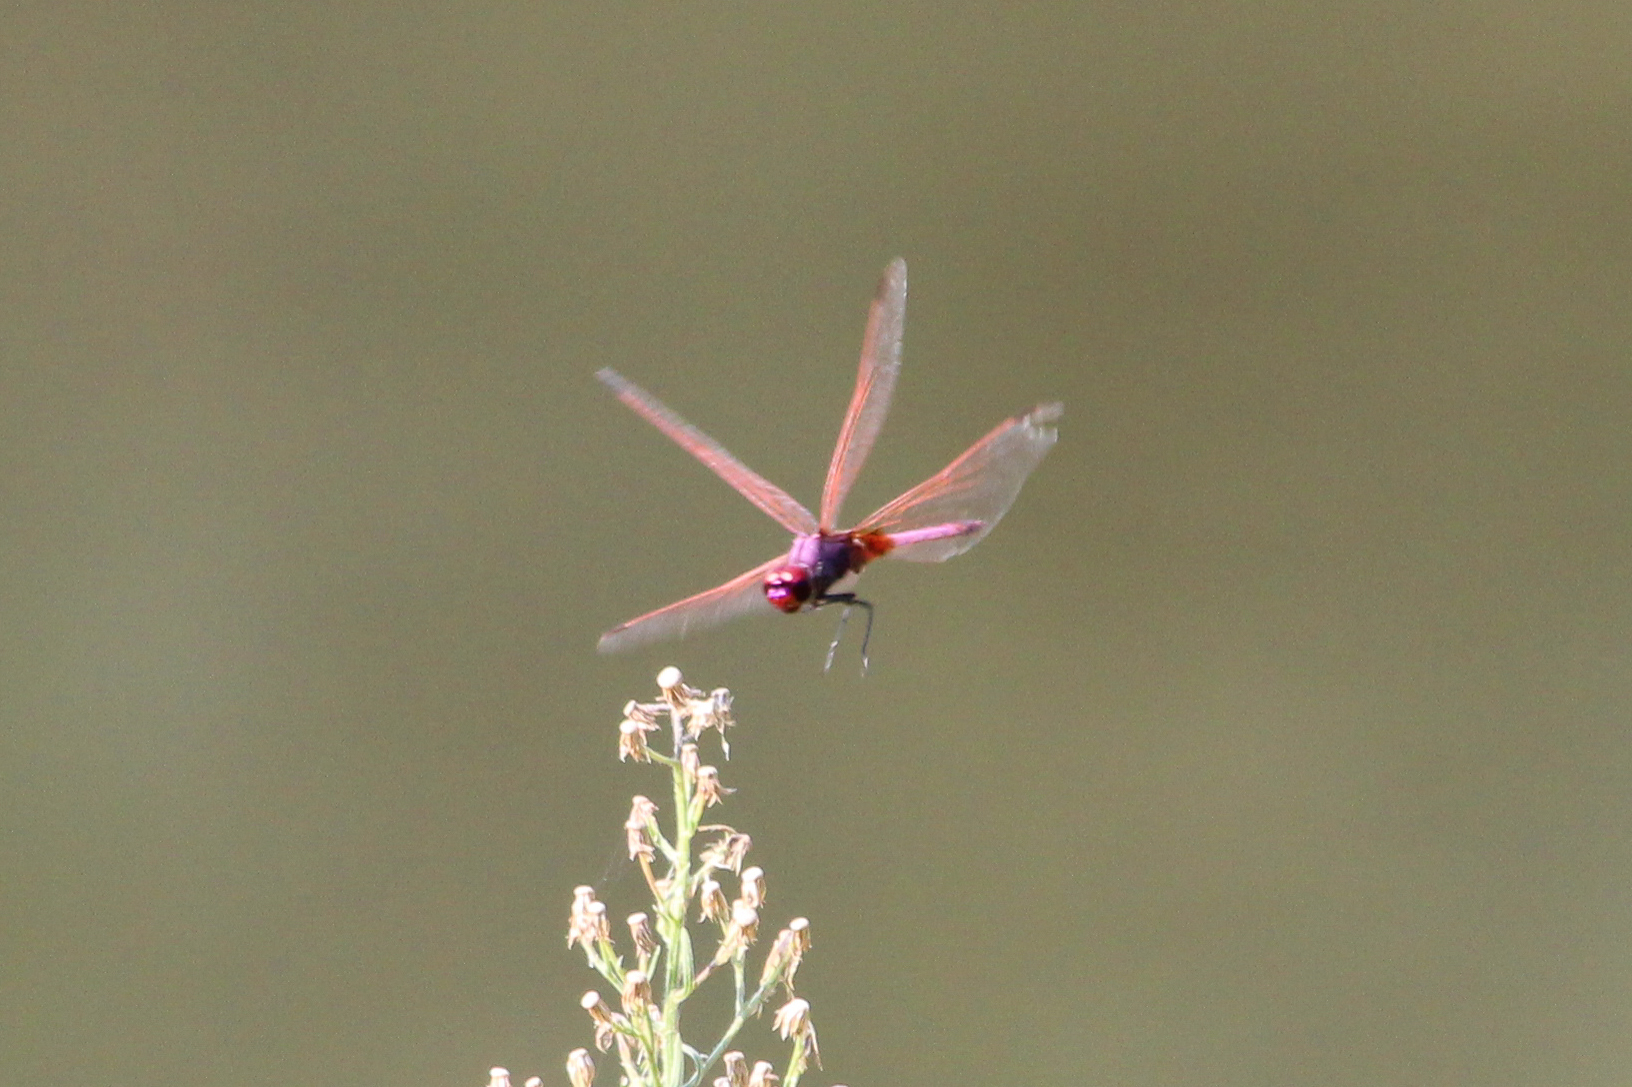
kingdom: Animalia
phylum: Arthropoda
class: Insecta
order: Odonata
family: Libellulidae
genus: Trithemis
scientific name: Trithemis annulata
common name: Violet dropwing
